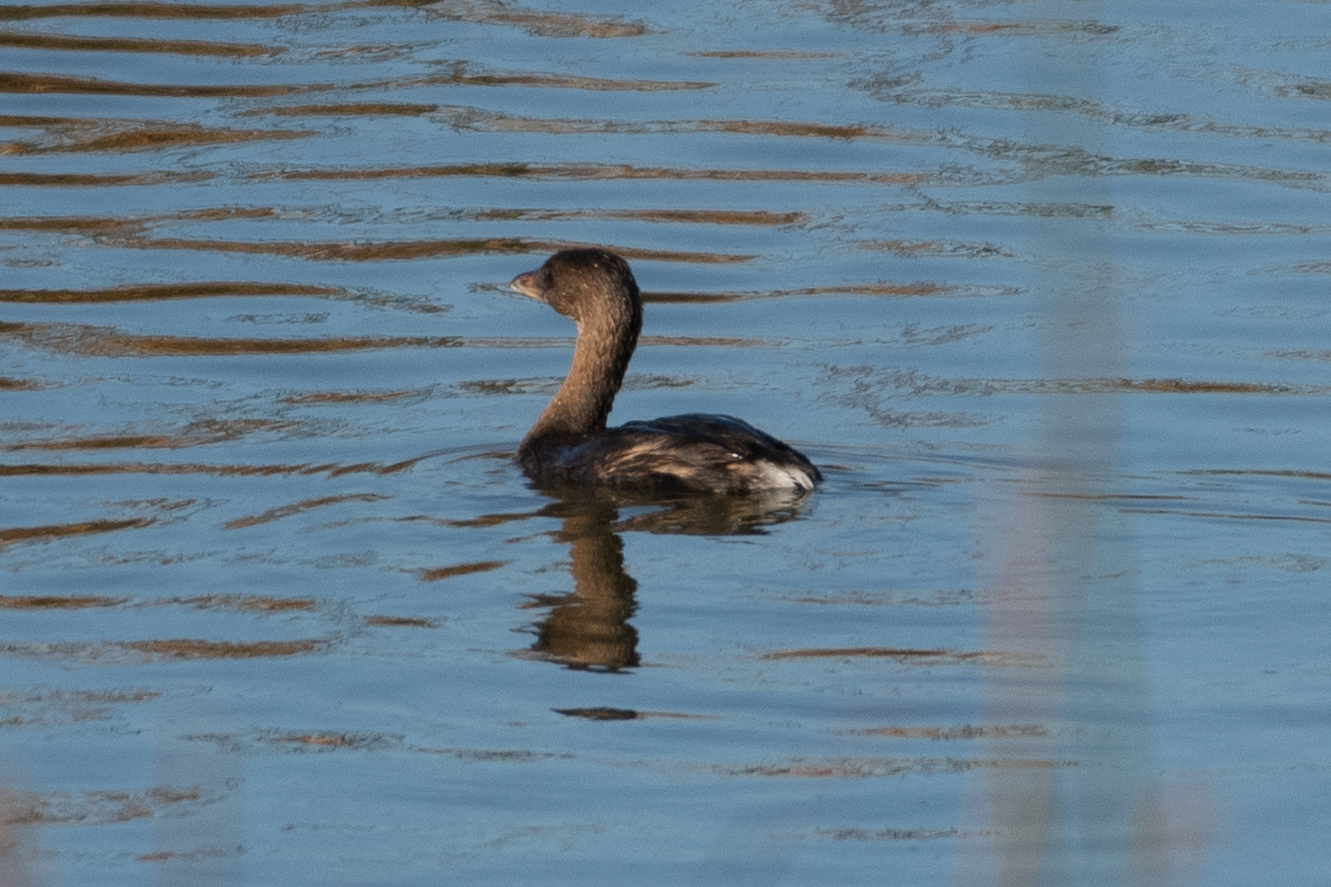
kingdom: Animalia
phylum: Chordata
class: Aves
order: Podicipediformes
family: Podicipedidae
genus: Podilymbus
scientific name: Podilymbus podiceps
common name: Pied-billed grebe
